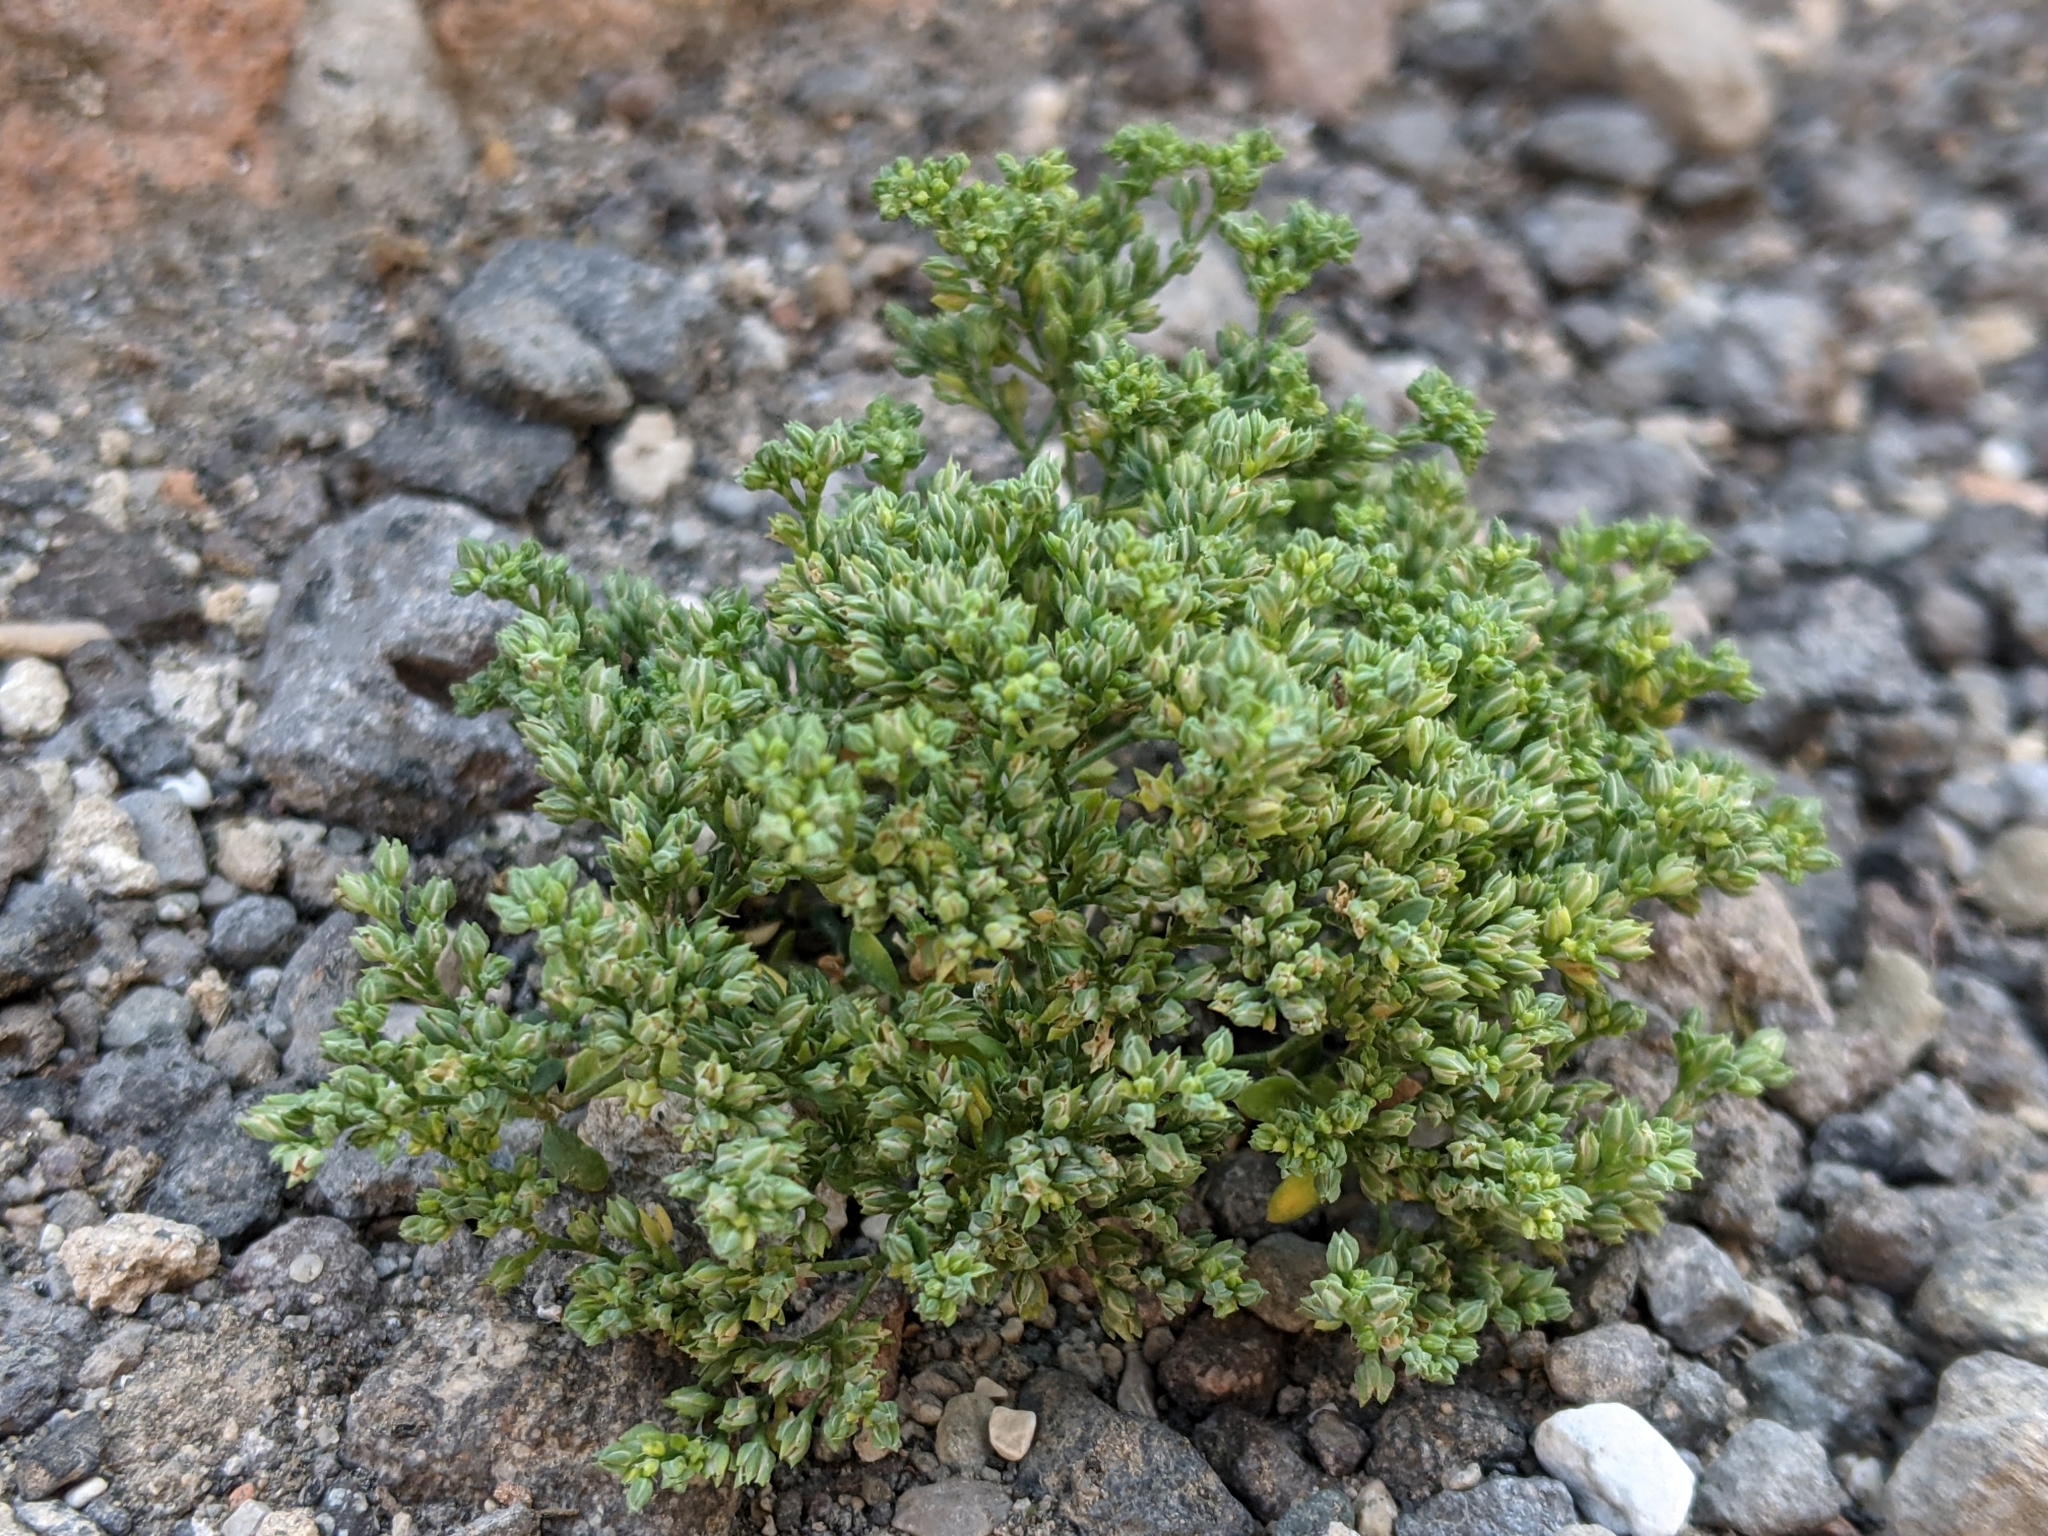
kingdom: Plantae
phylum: Tracheophyta
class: Magnoliopsida
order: Caryophyllales
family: Caryophyllaceae
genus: Polycarpon
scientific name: Polycarpon tetraphyllum
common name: Four-leaved all-seed
